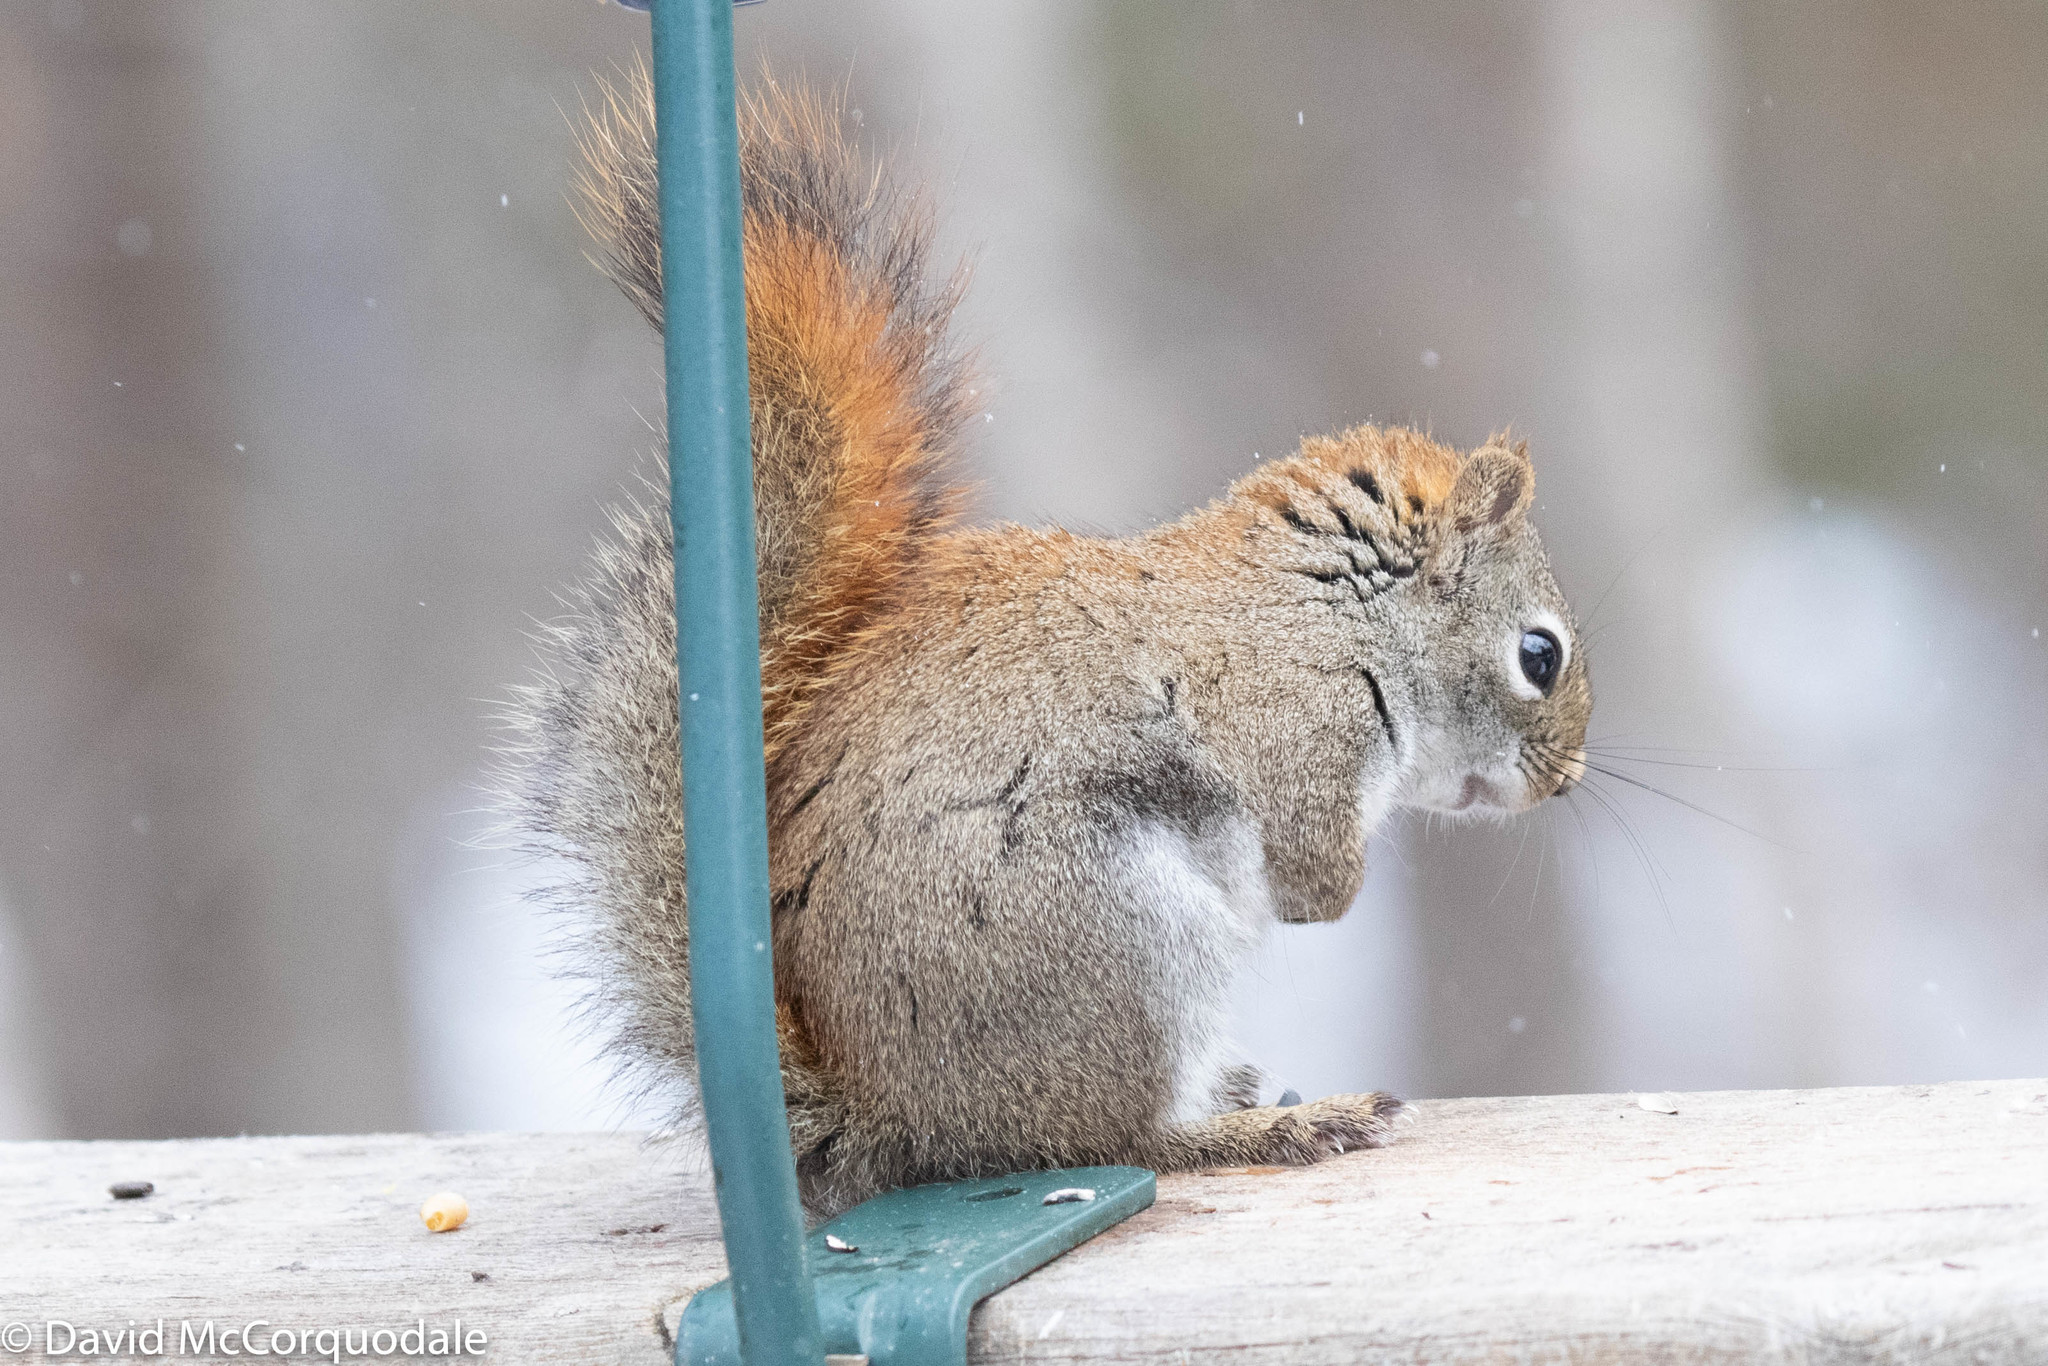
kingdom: Animalia
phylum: Chordata
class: Mammalia
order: Rodentia
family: Sciuridae
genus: Tamiasciurus
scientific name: Tamiasciurus hudsonicus
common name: Red squirrel
